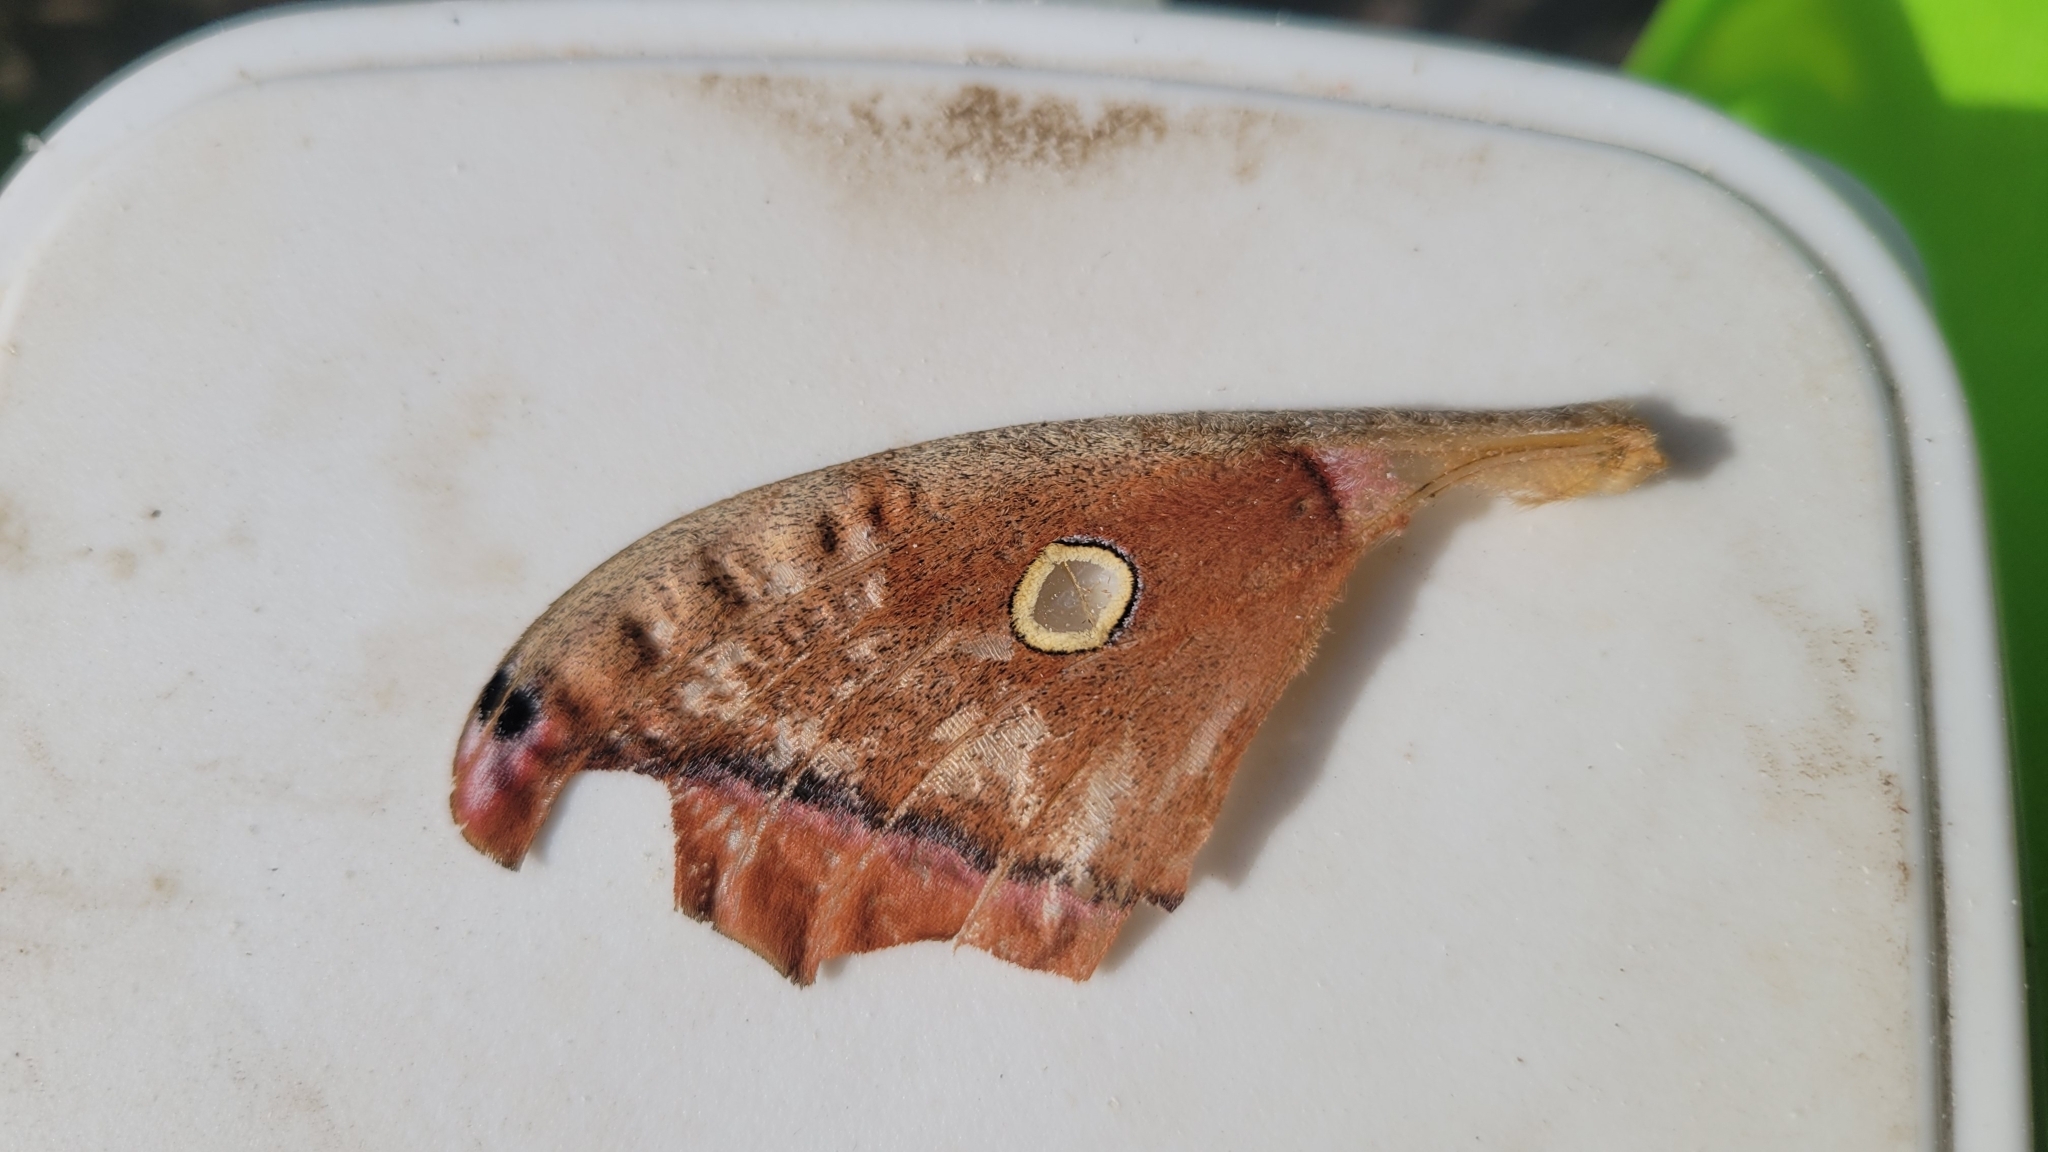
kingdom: Animalia
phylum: Arthropoda
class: Insecta
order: Lepidoptera
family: Saturniidae
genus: Antheraea
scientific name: Antheraea polyphemus
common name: Polyphemus moth
